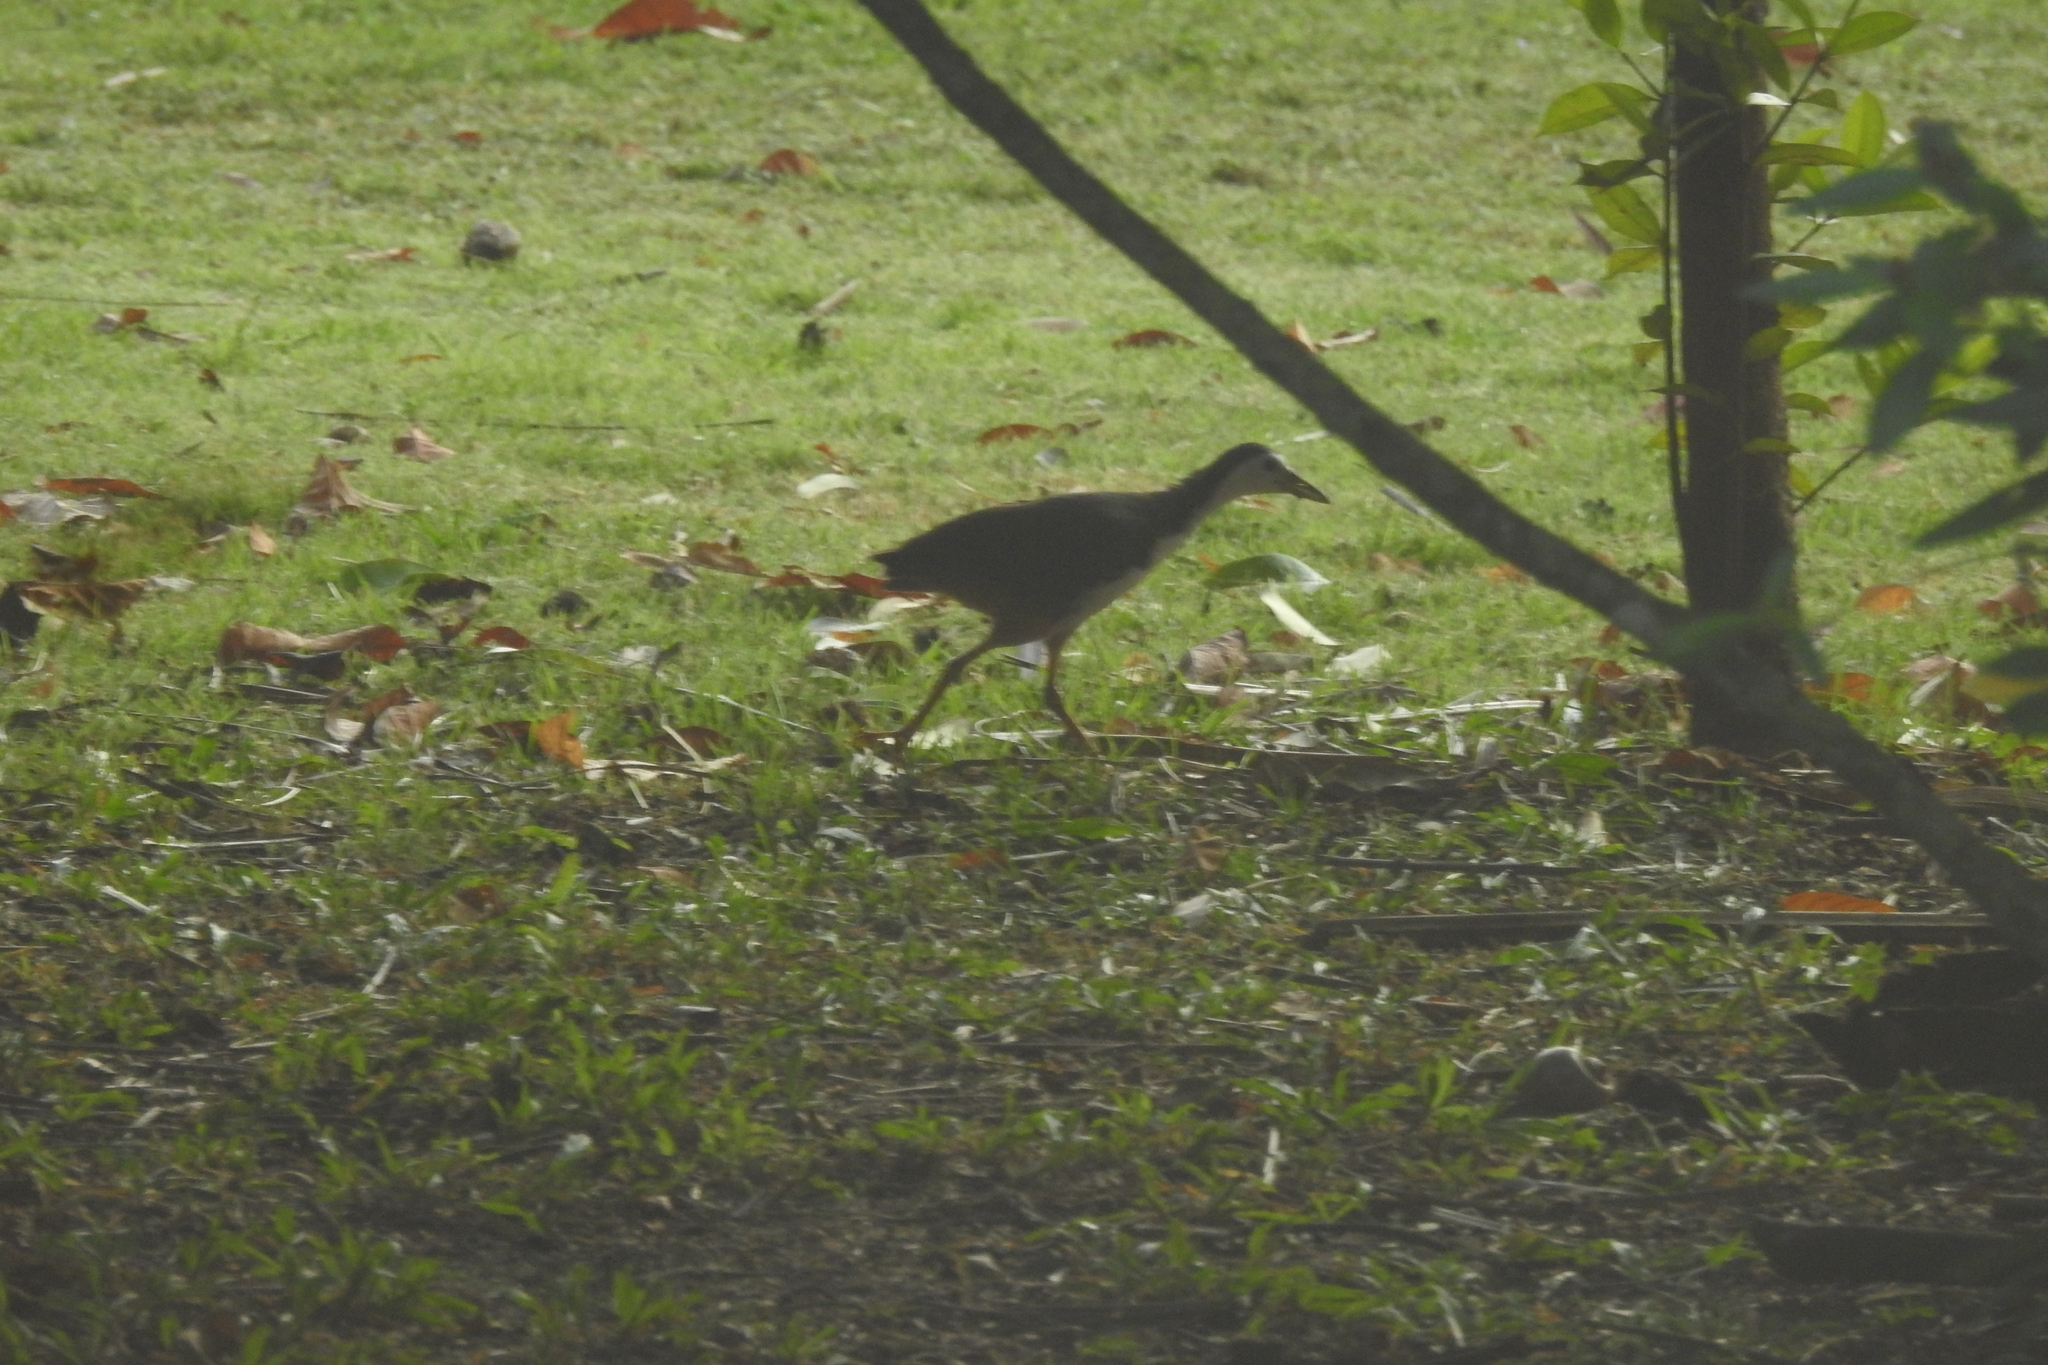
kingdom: Animalia
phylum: Chordata
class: Aves
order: Gruiformes
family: Rallidae
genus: Amaurornis
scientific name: Amaurornis phoenicurus
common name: White-breasted waterhen
